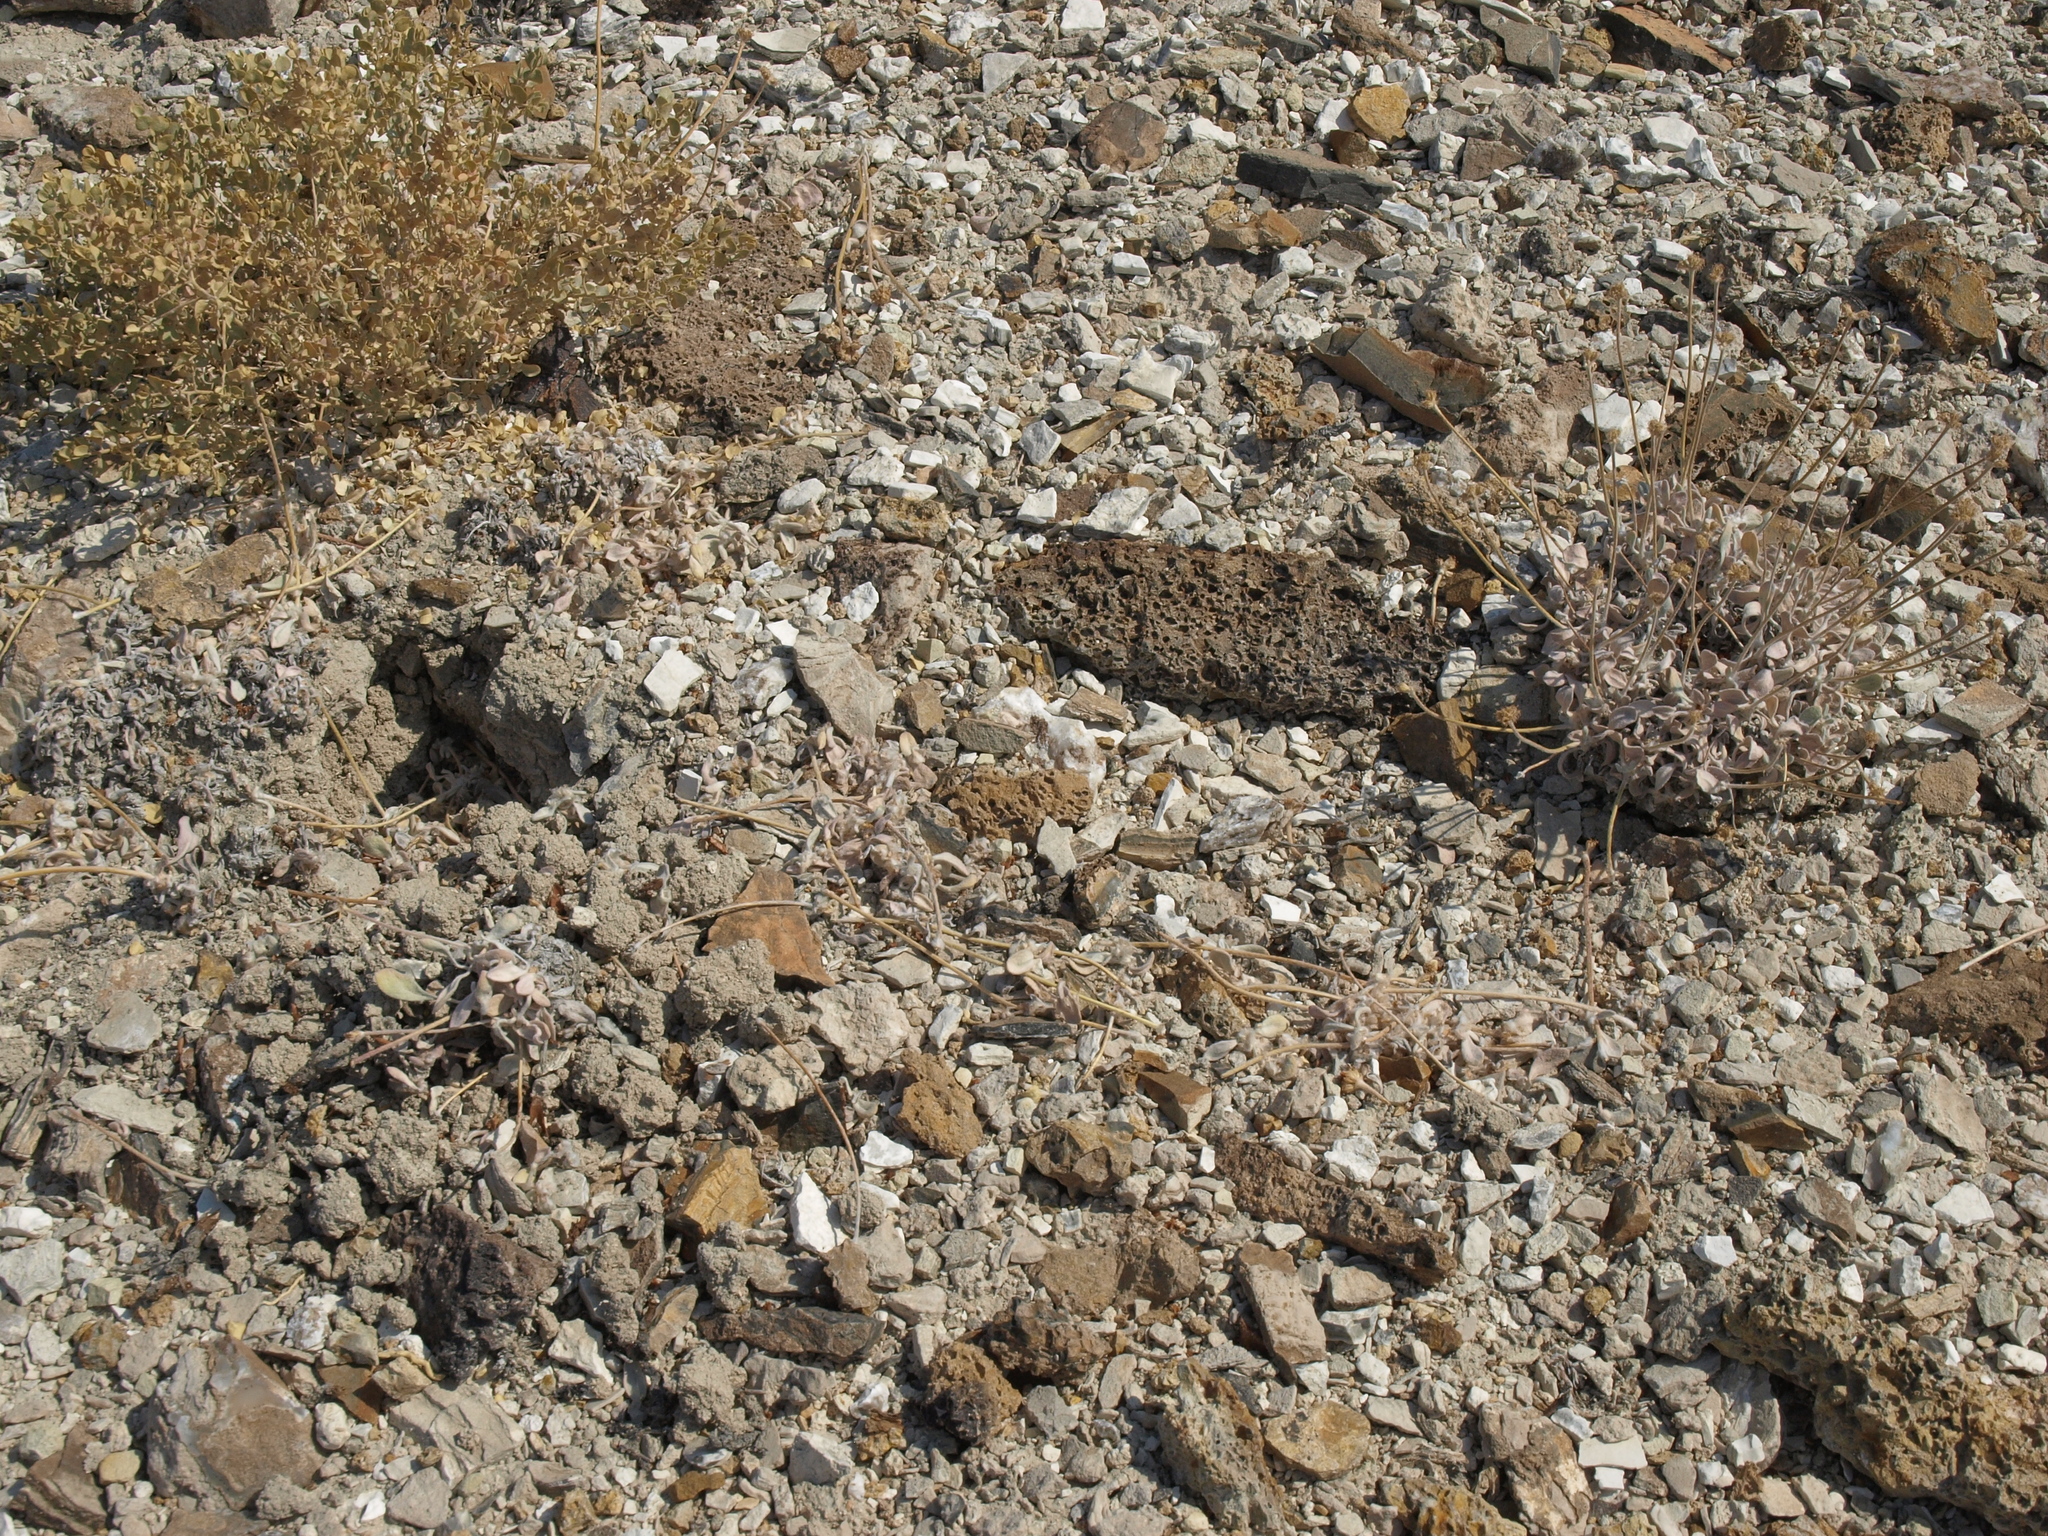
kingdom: Plantae
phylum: Tracheophyta
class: Magnoliopsida
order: Caryophyllales
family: Polygonaceae
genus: Eriogonum
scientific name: Eriogonum tiehmii
